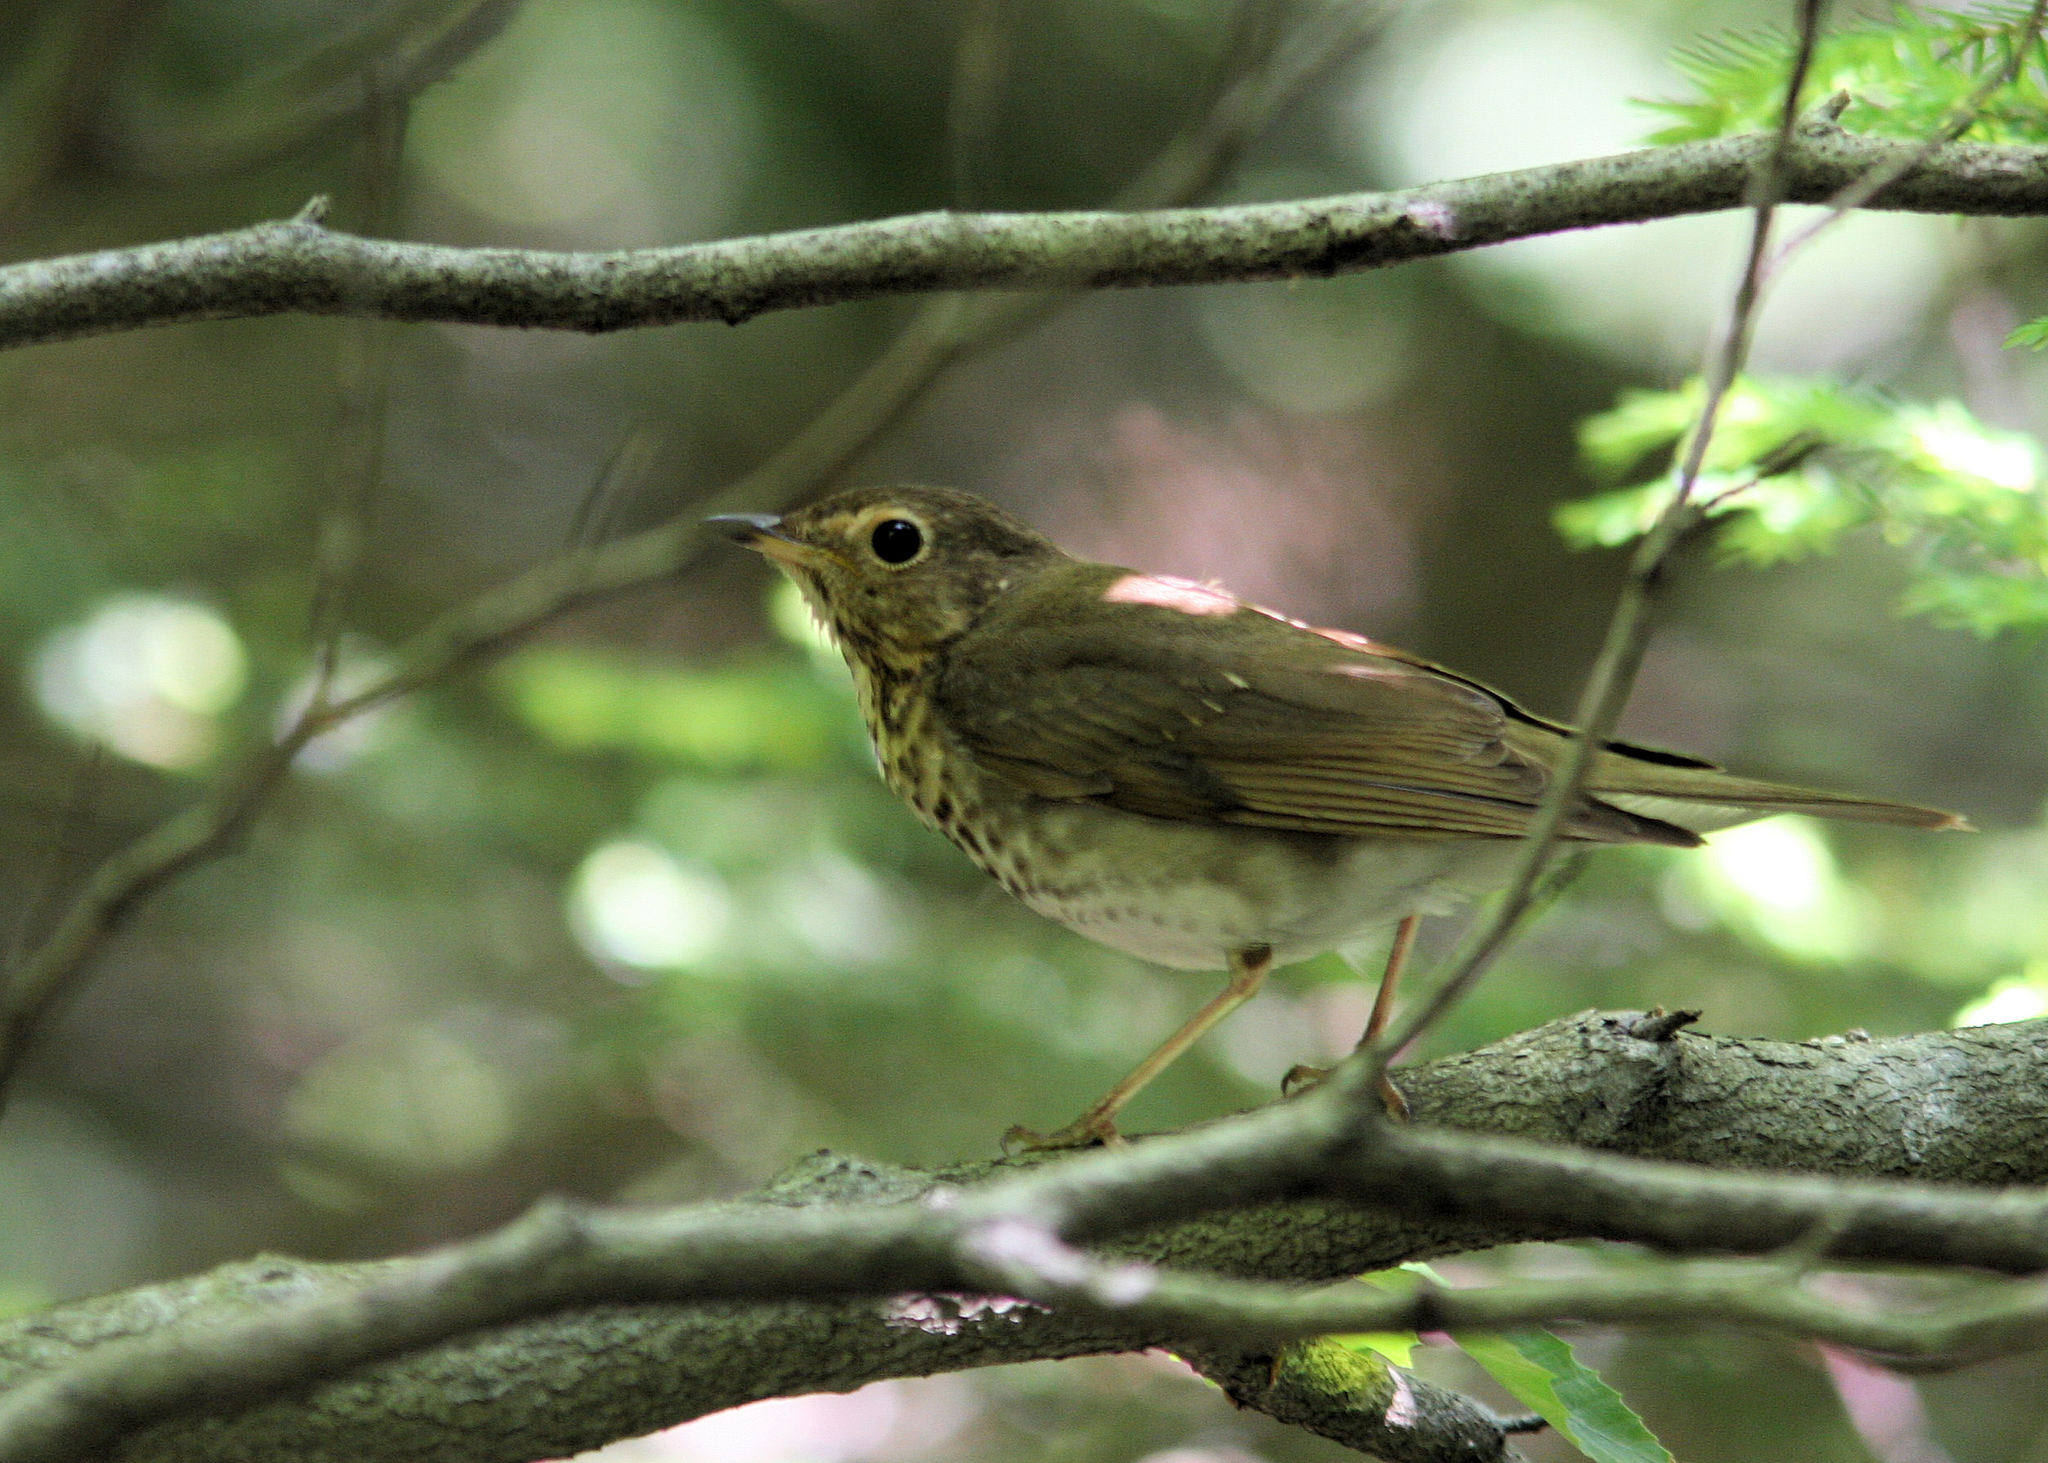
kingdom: Animalia
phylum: Chordata
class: Aves
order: Passeriformes
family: Turdidae
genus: Catharus
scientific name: Catharus ustulatus
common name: Swainson's thrush
